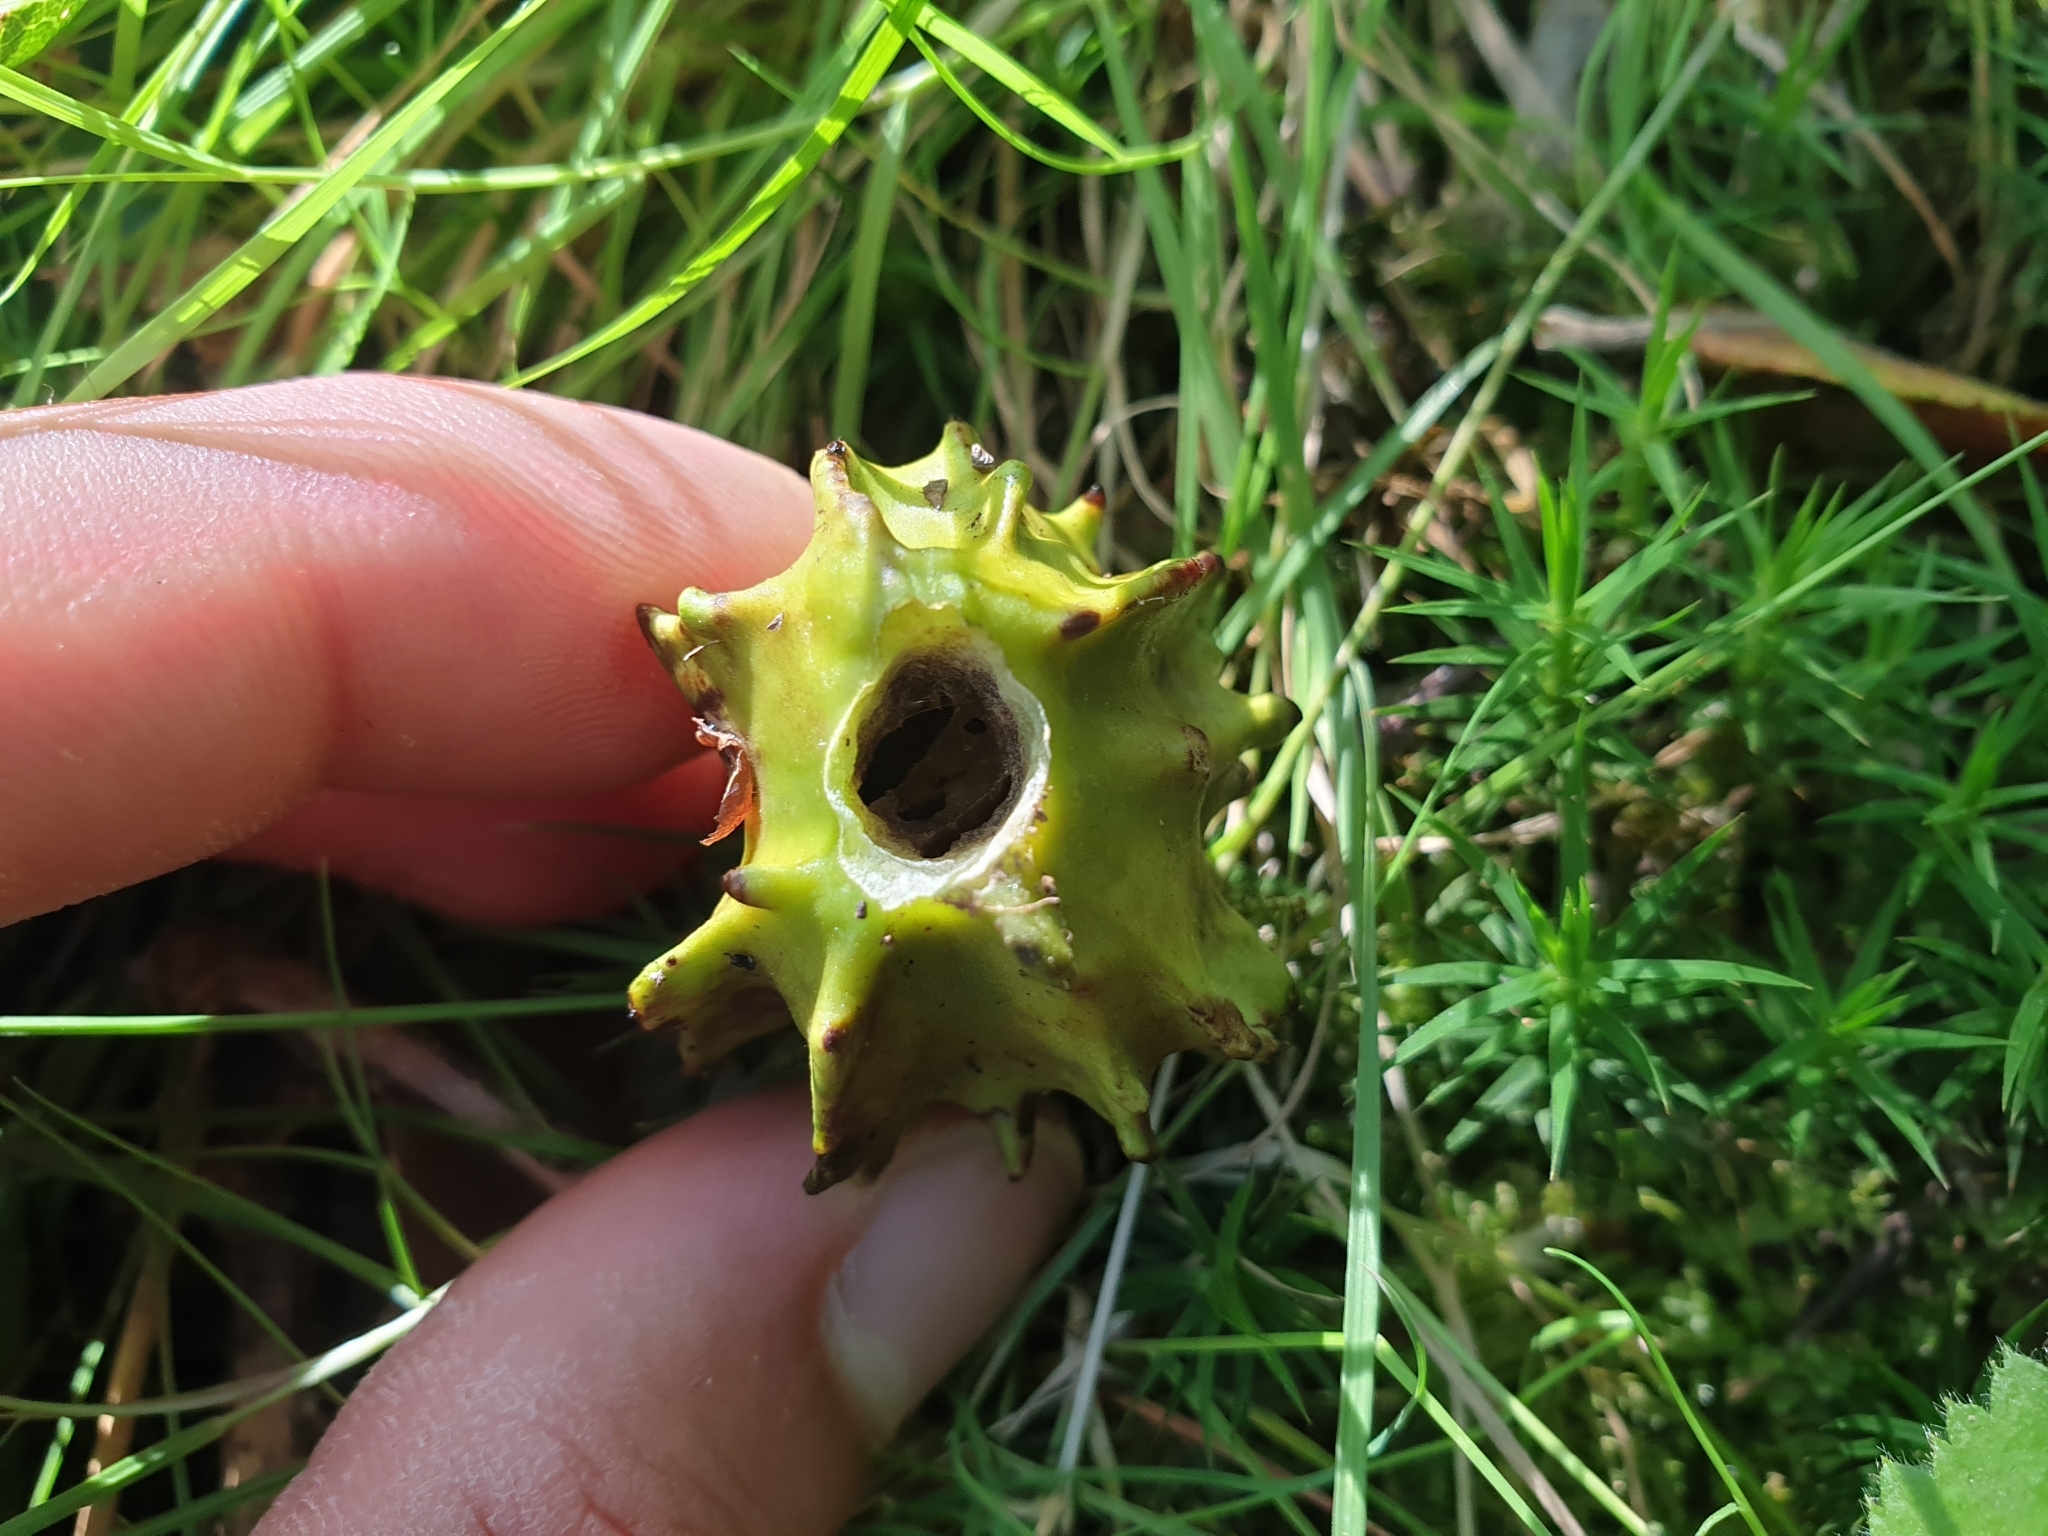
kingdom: Animalia
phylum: Arthropoda
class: Insecta
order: Hymenoptera
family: Cynipidae
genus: Andricus
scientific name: Andricus quercuscalicis
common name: Knopper gall
